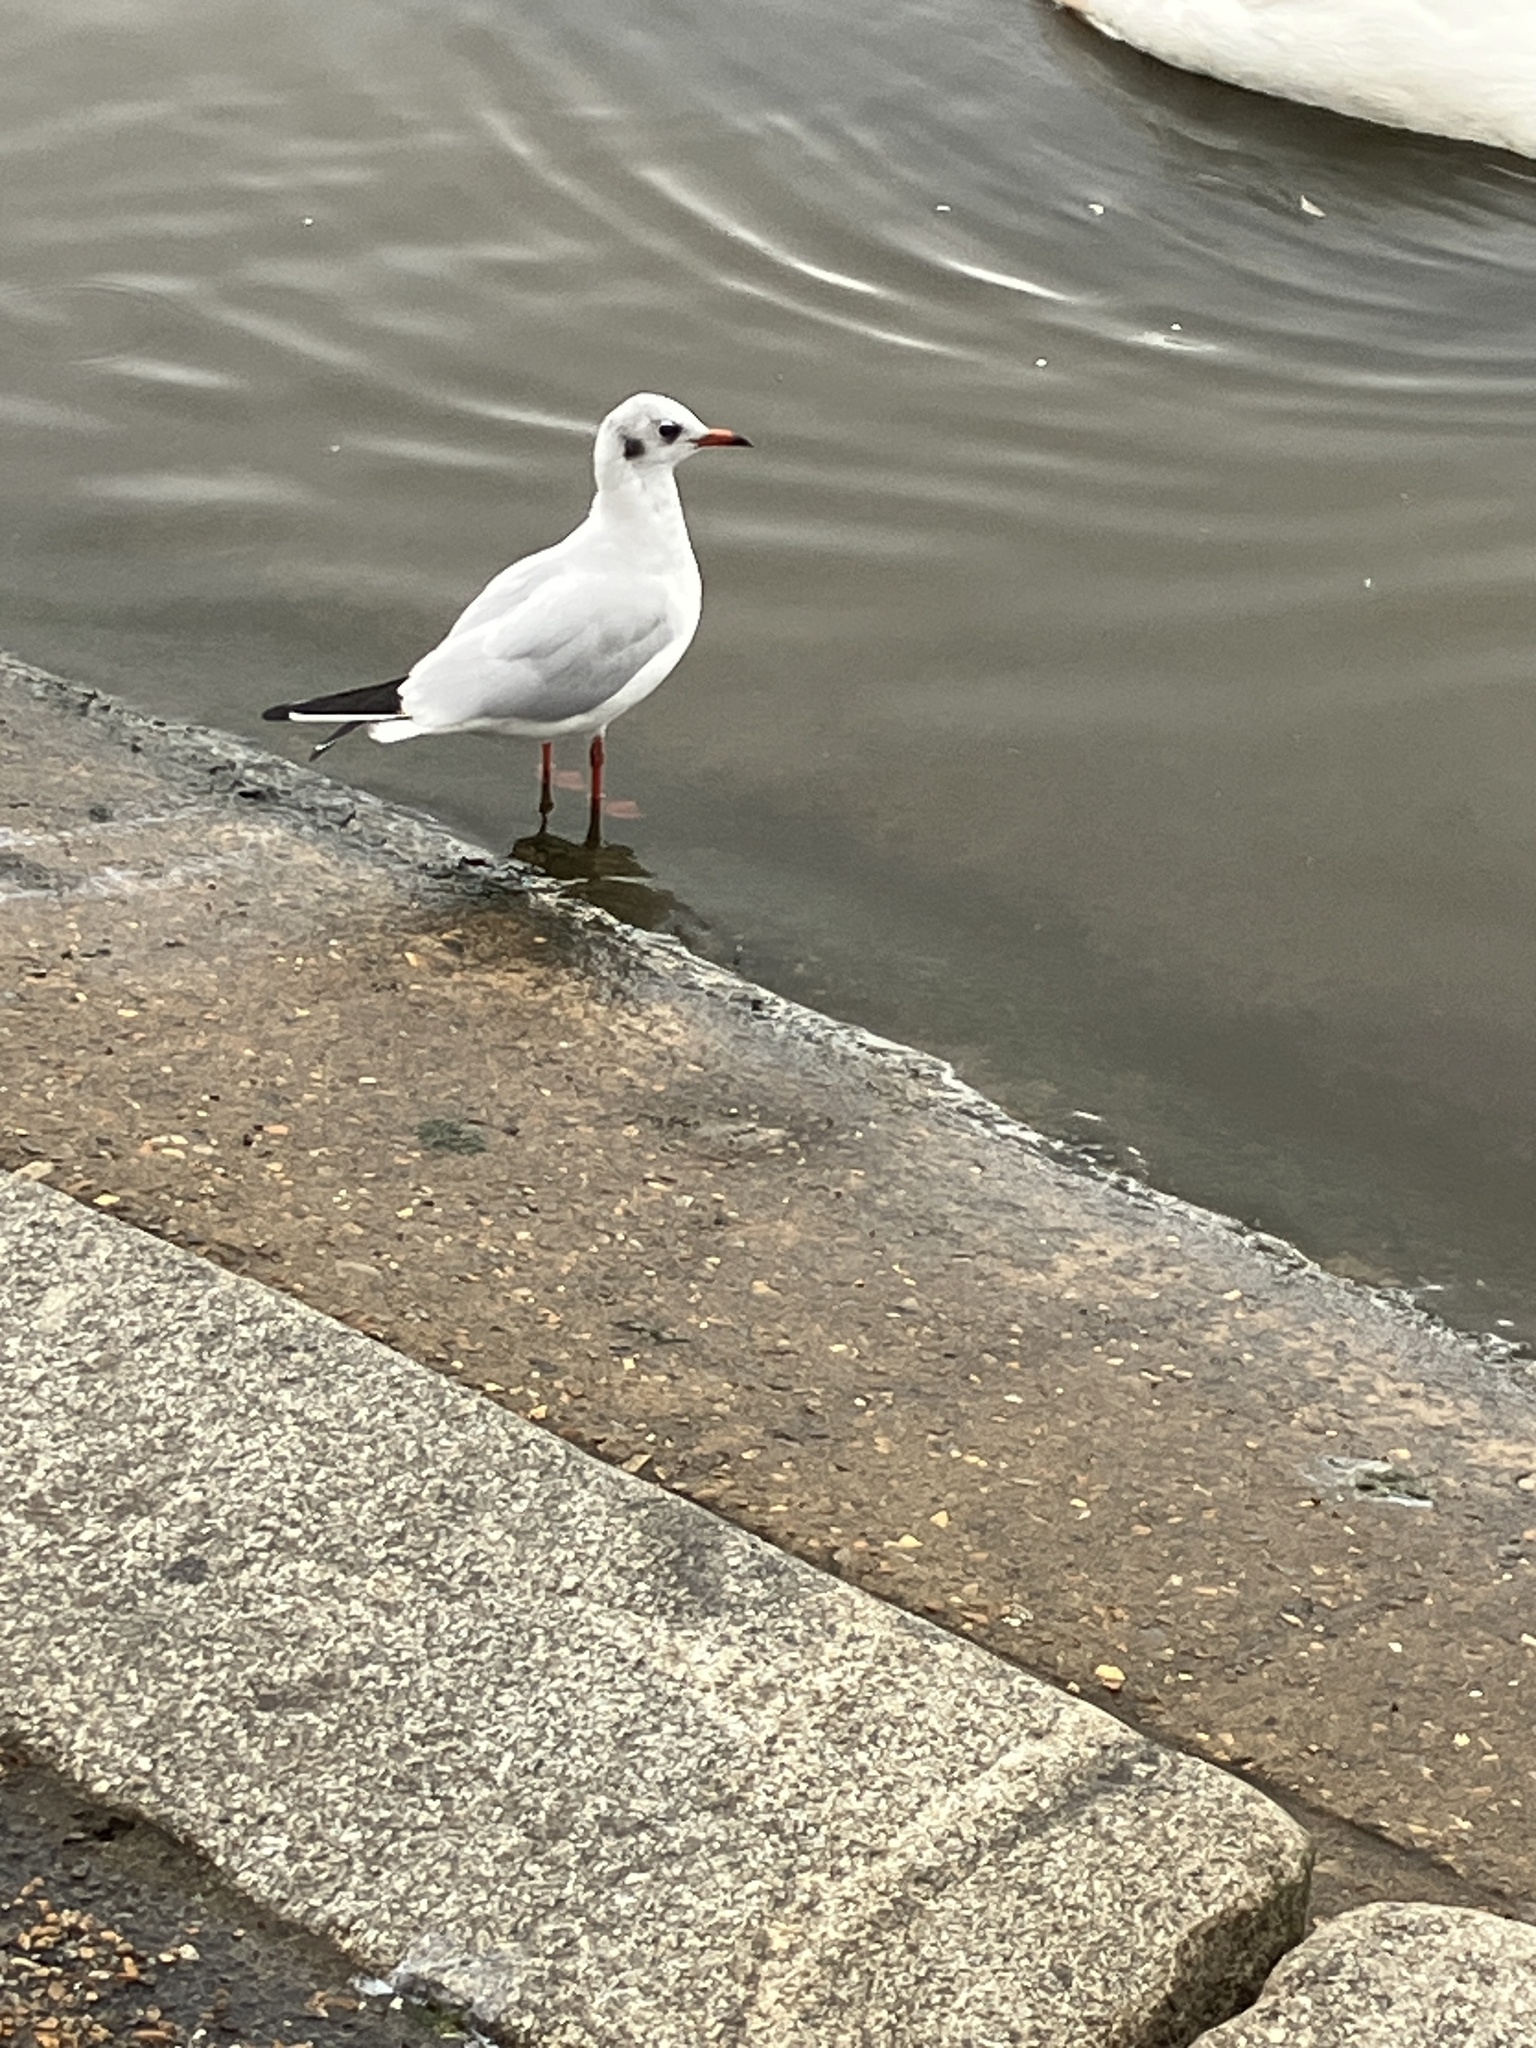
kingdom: Animalia
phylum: Chordata
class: Aves
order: Charadriiformes
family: Laridae
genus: Chroicocephalus
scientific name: Chroicocephalus ridibundus
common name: Black-headed gull
